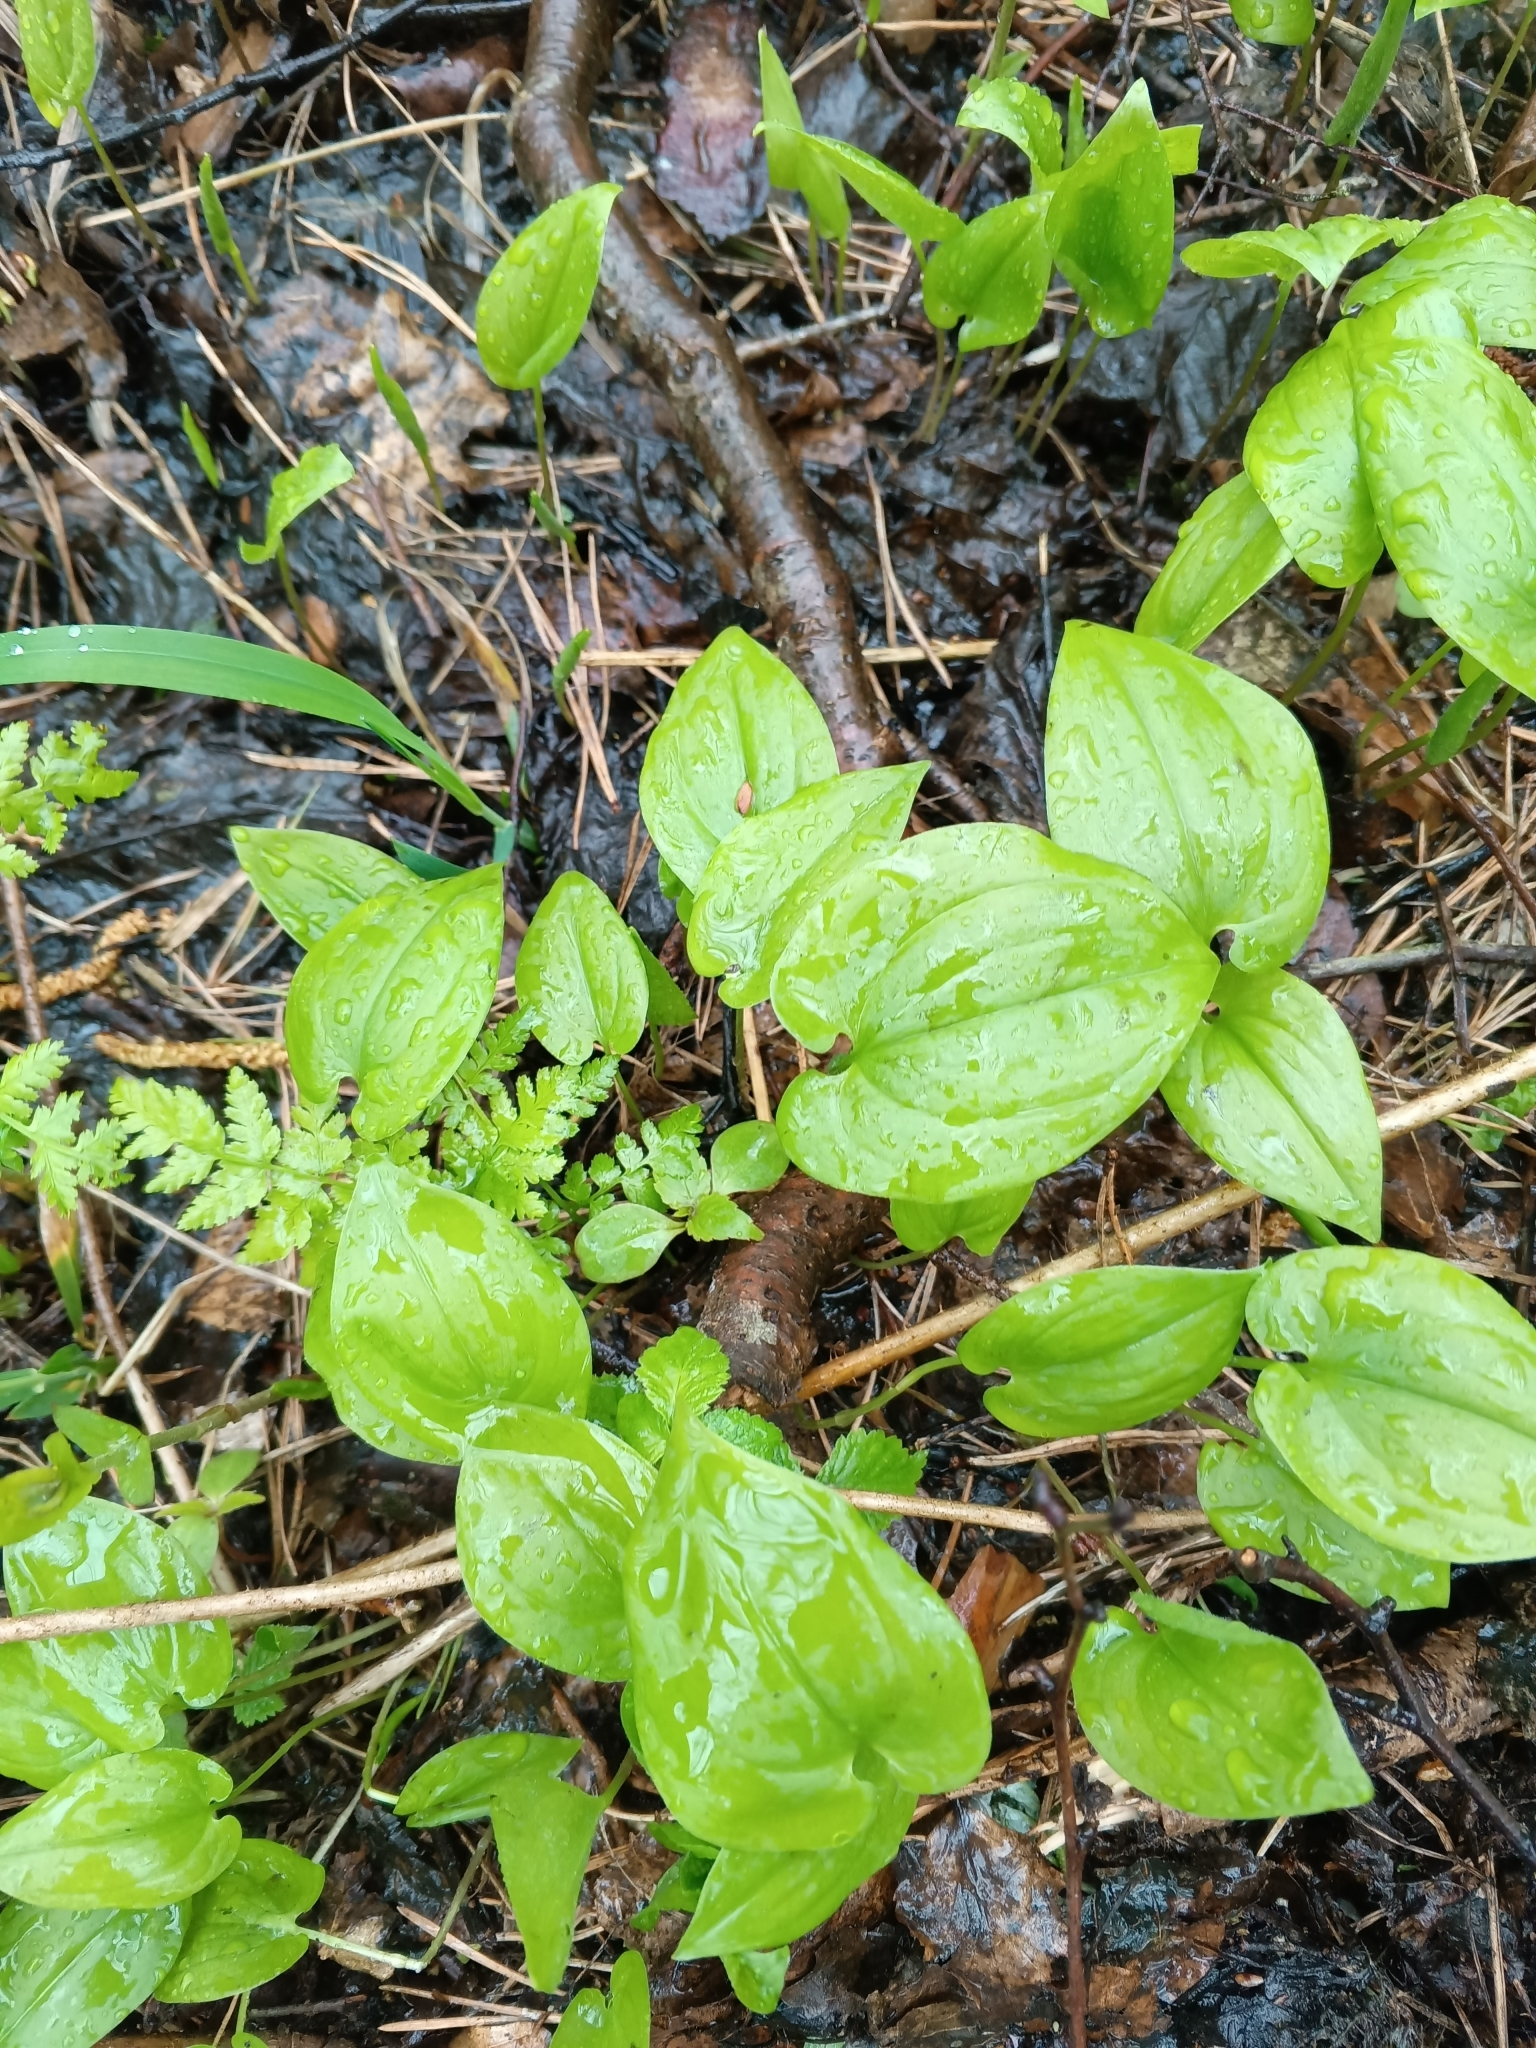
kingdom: Plantae
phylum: Tracheophyta
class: Liliopsida
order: Asparagales
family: Asparagaceae
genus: Maianthemum
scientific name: Maianthemum bifolium
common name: May lily
